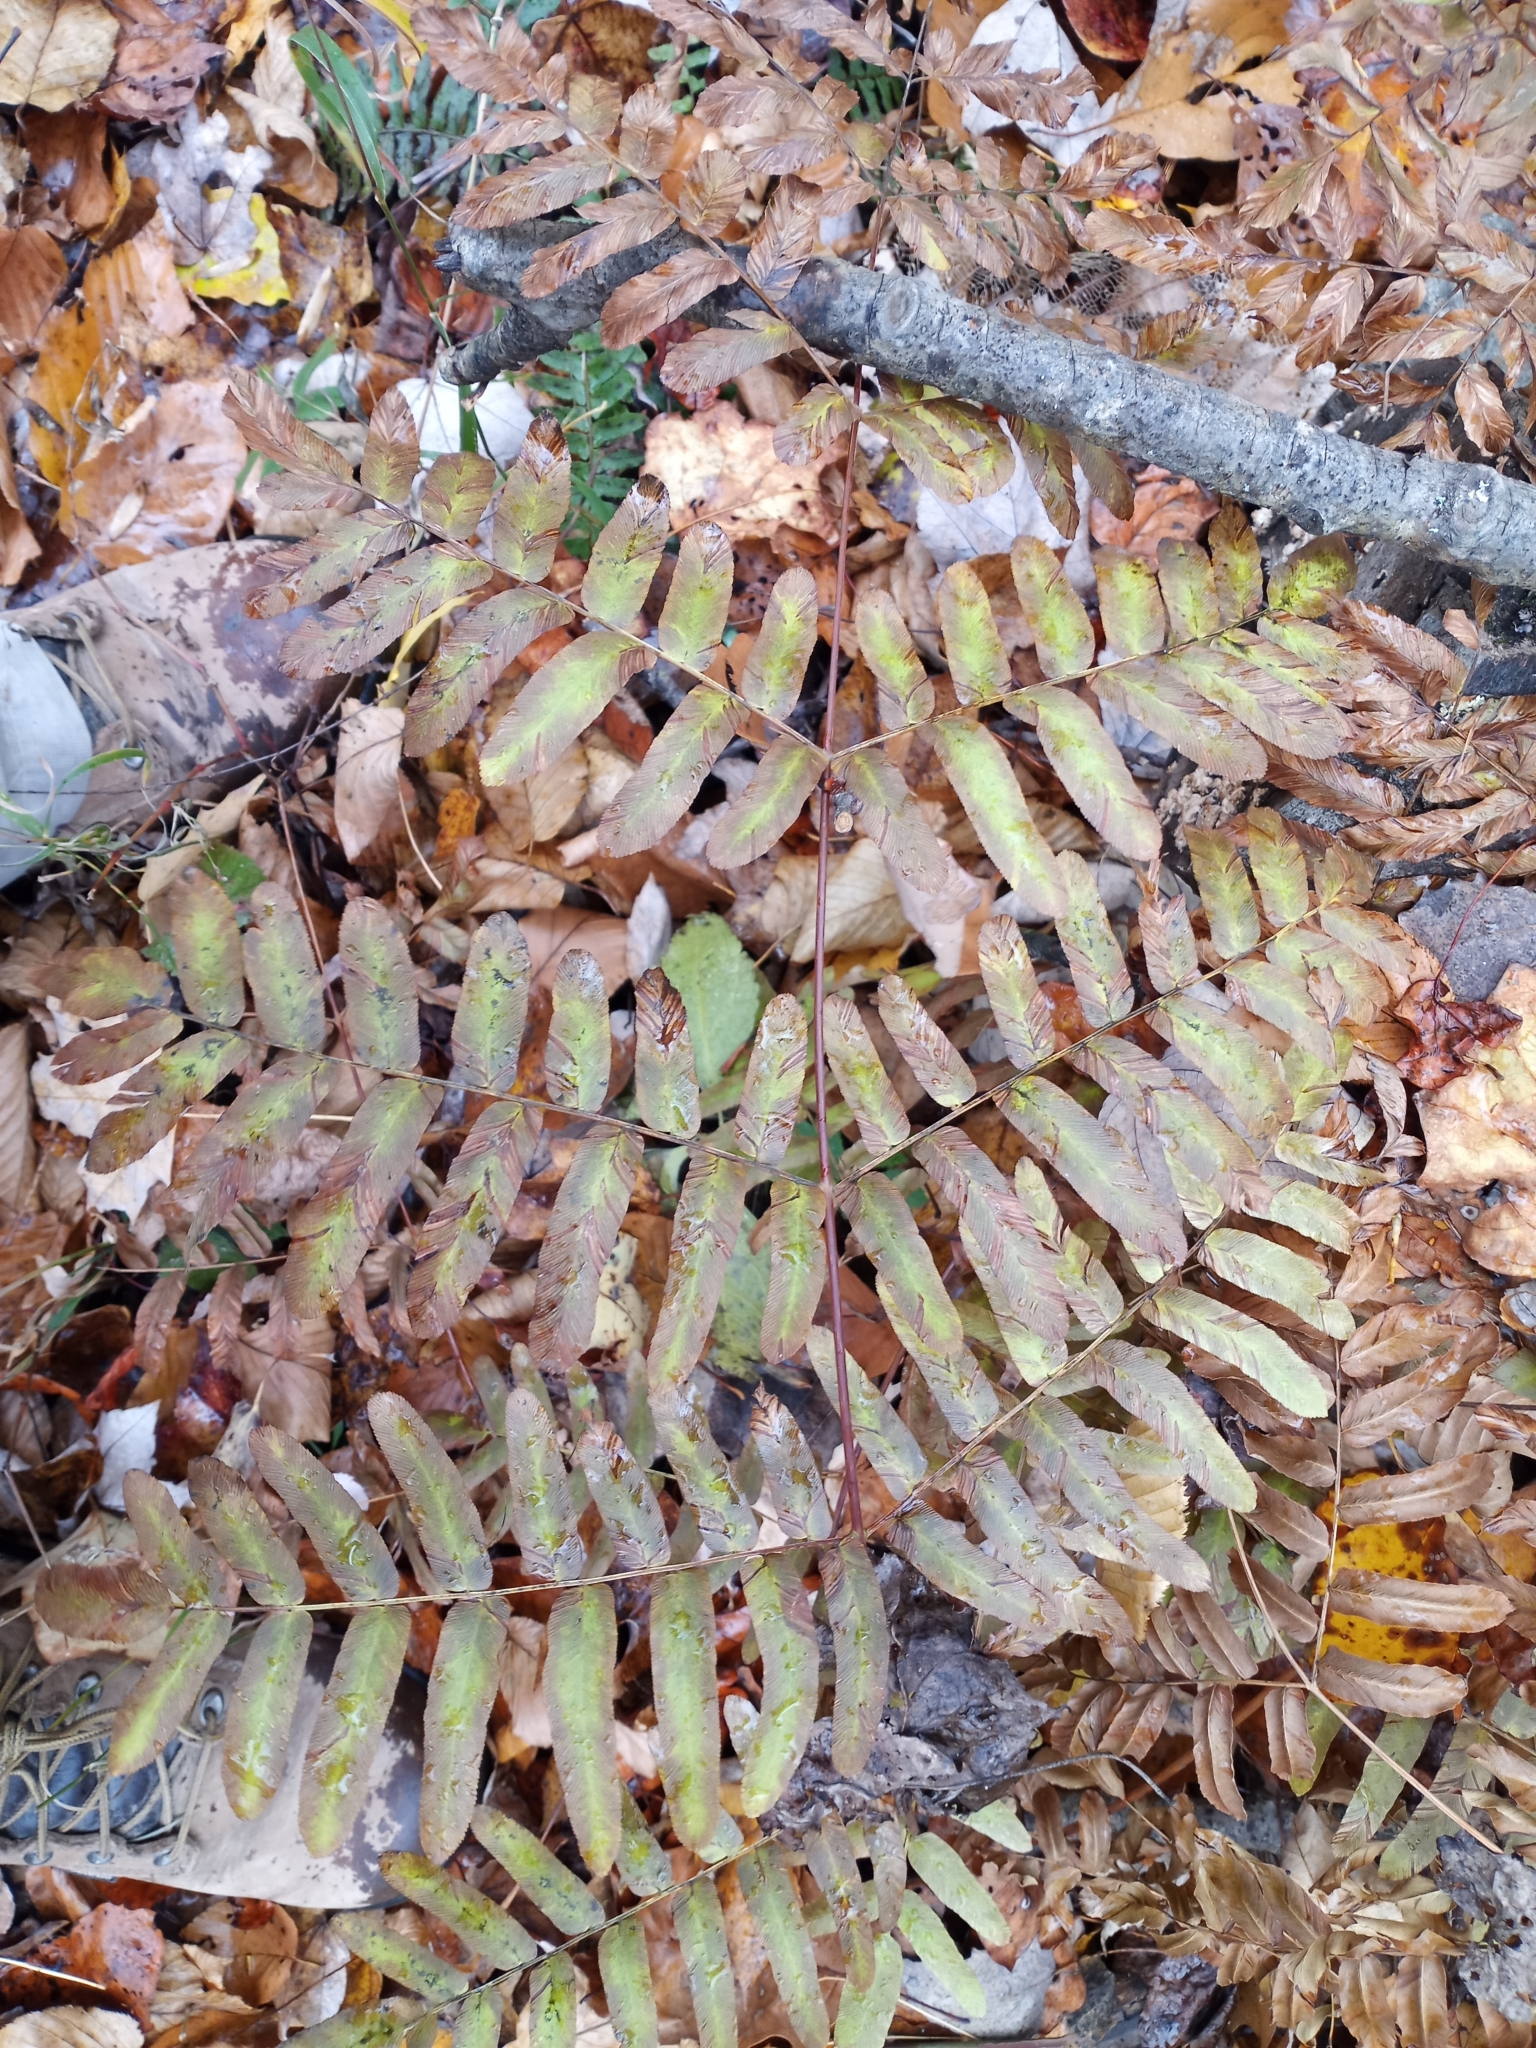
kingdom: Plantae
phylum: Tracheophyta
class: Polypodiopsida
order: Osmundales
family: Osmundaceae
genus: Osmunda
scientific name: Osmunda spectabilis
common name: American royal fern
